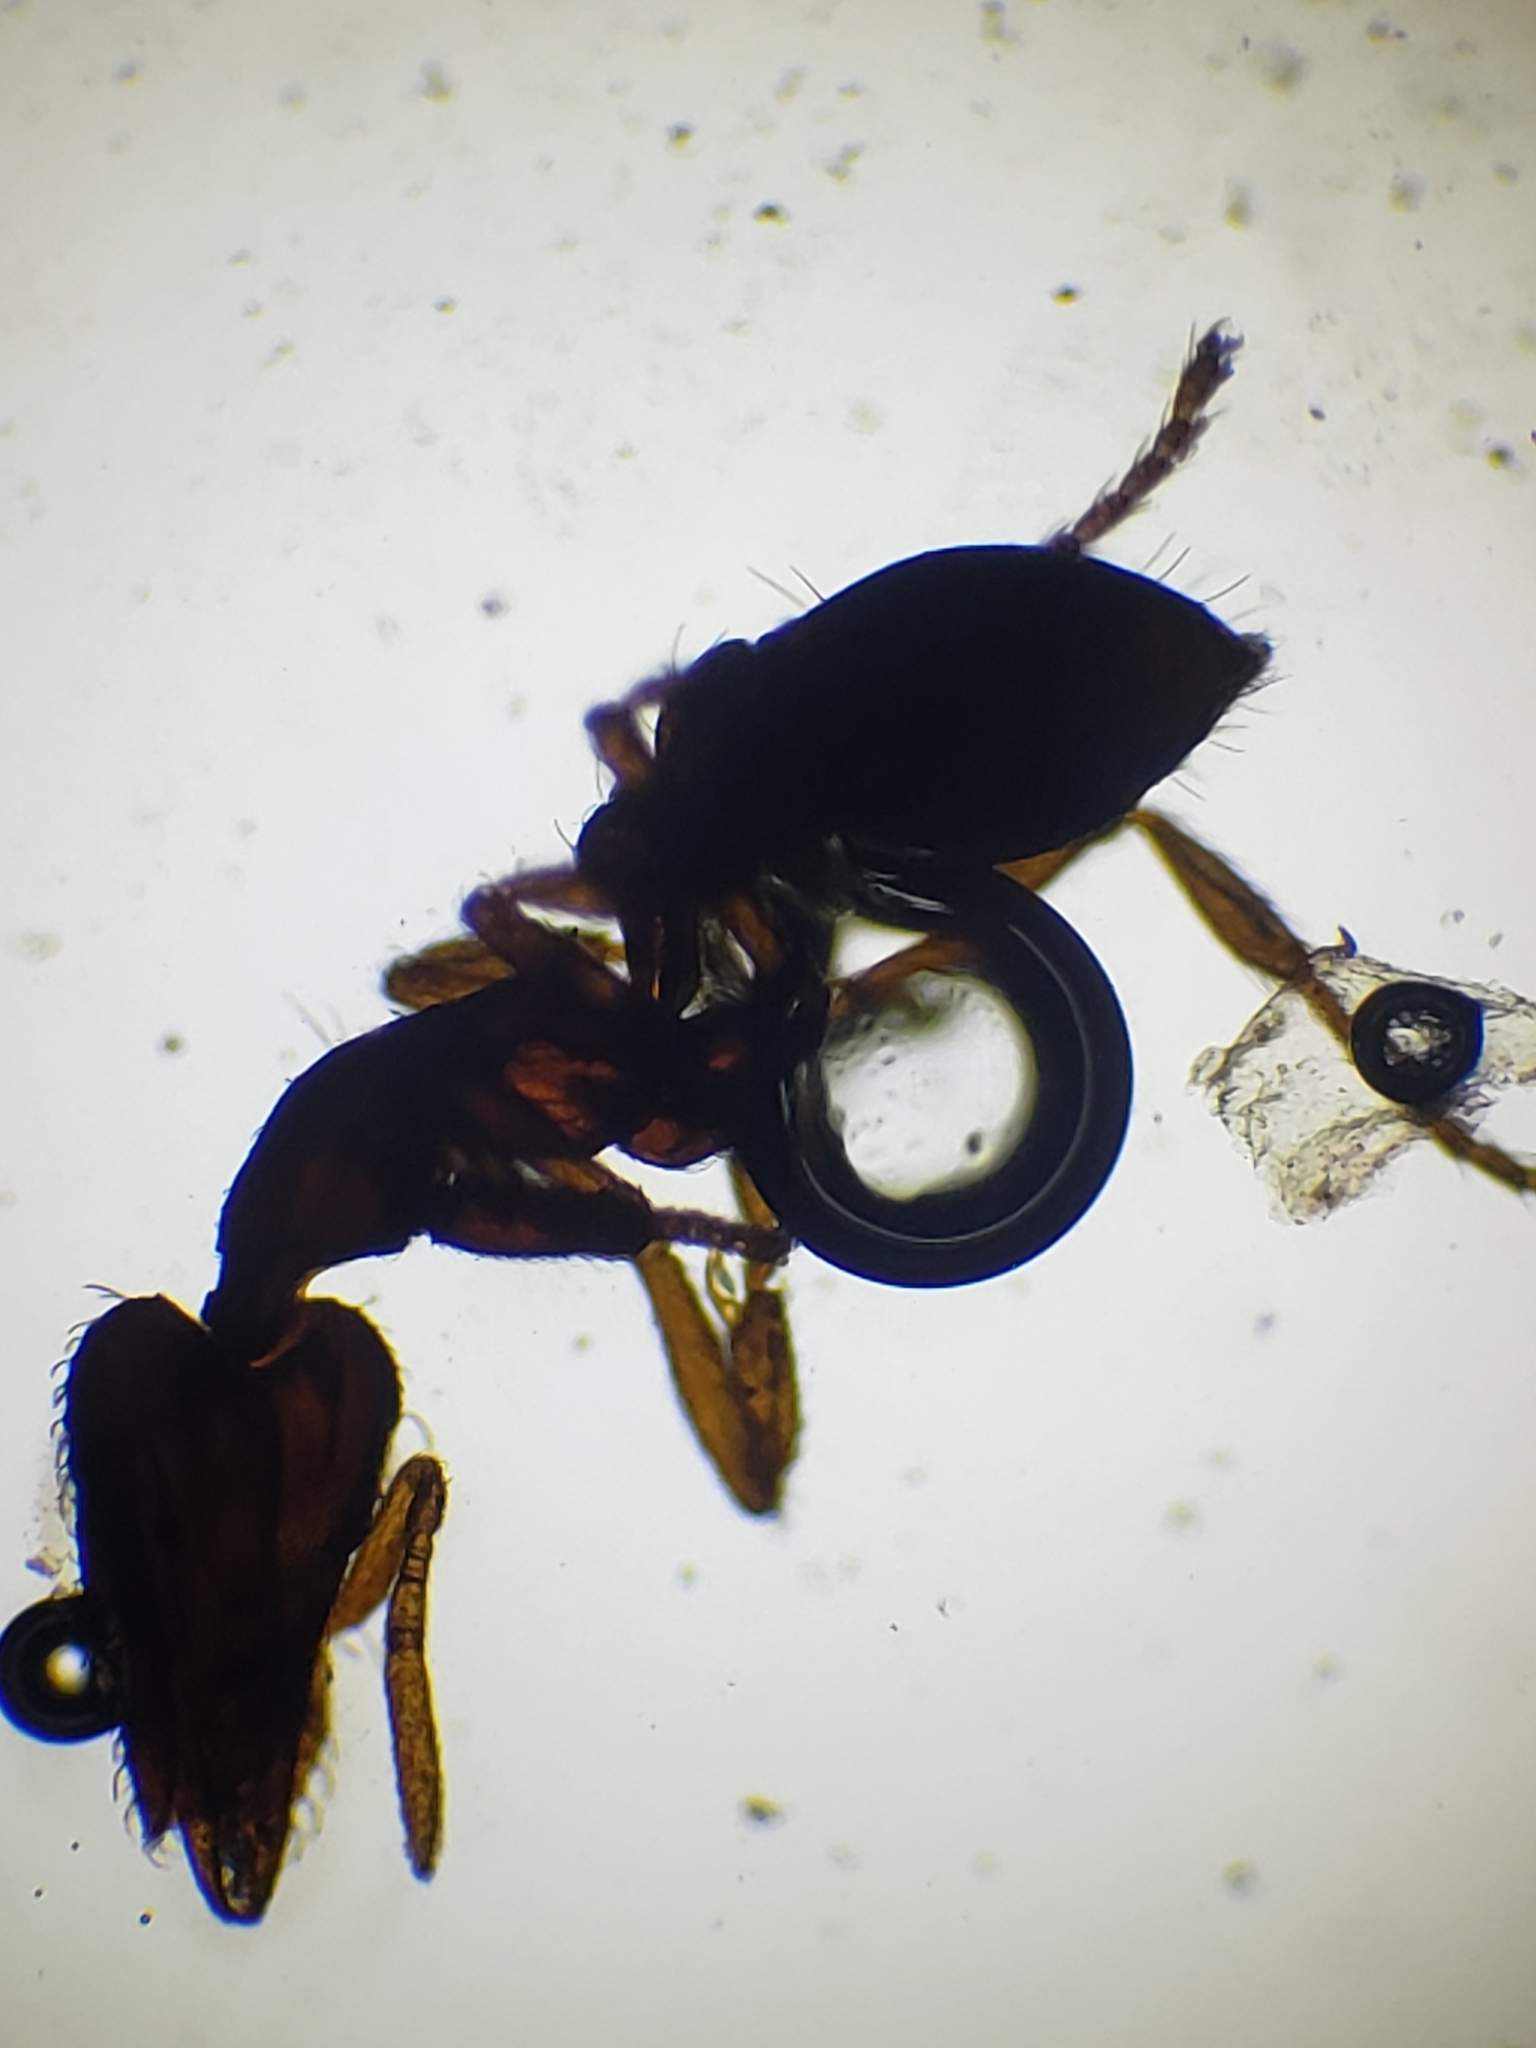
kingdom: Animalia
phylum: Arthropoda
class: Insecta
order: Hymenoptera
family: Formicidae
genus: Pyramica
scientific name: Pyramica rostrata
